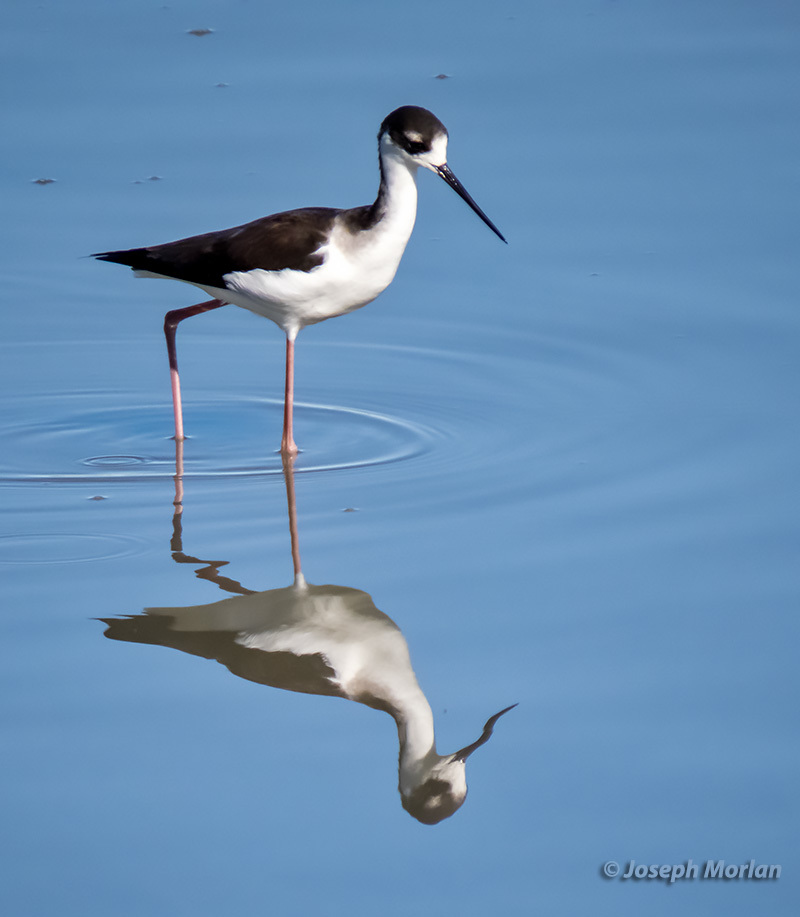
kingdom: Animalia
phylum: Chordata
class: Aves
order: Charadriiformes
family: Recurvirostridae
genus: Himantopus
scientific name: Himantopus mexicanus
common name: Black-necked stilt
